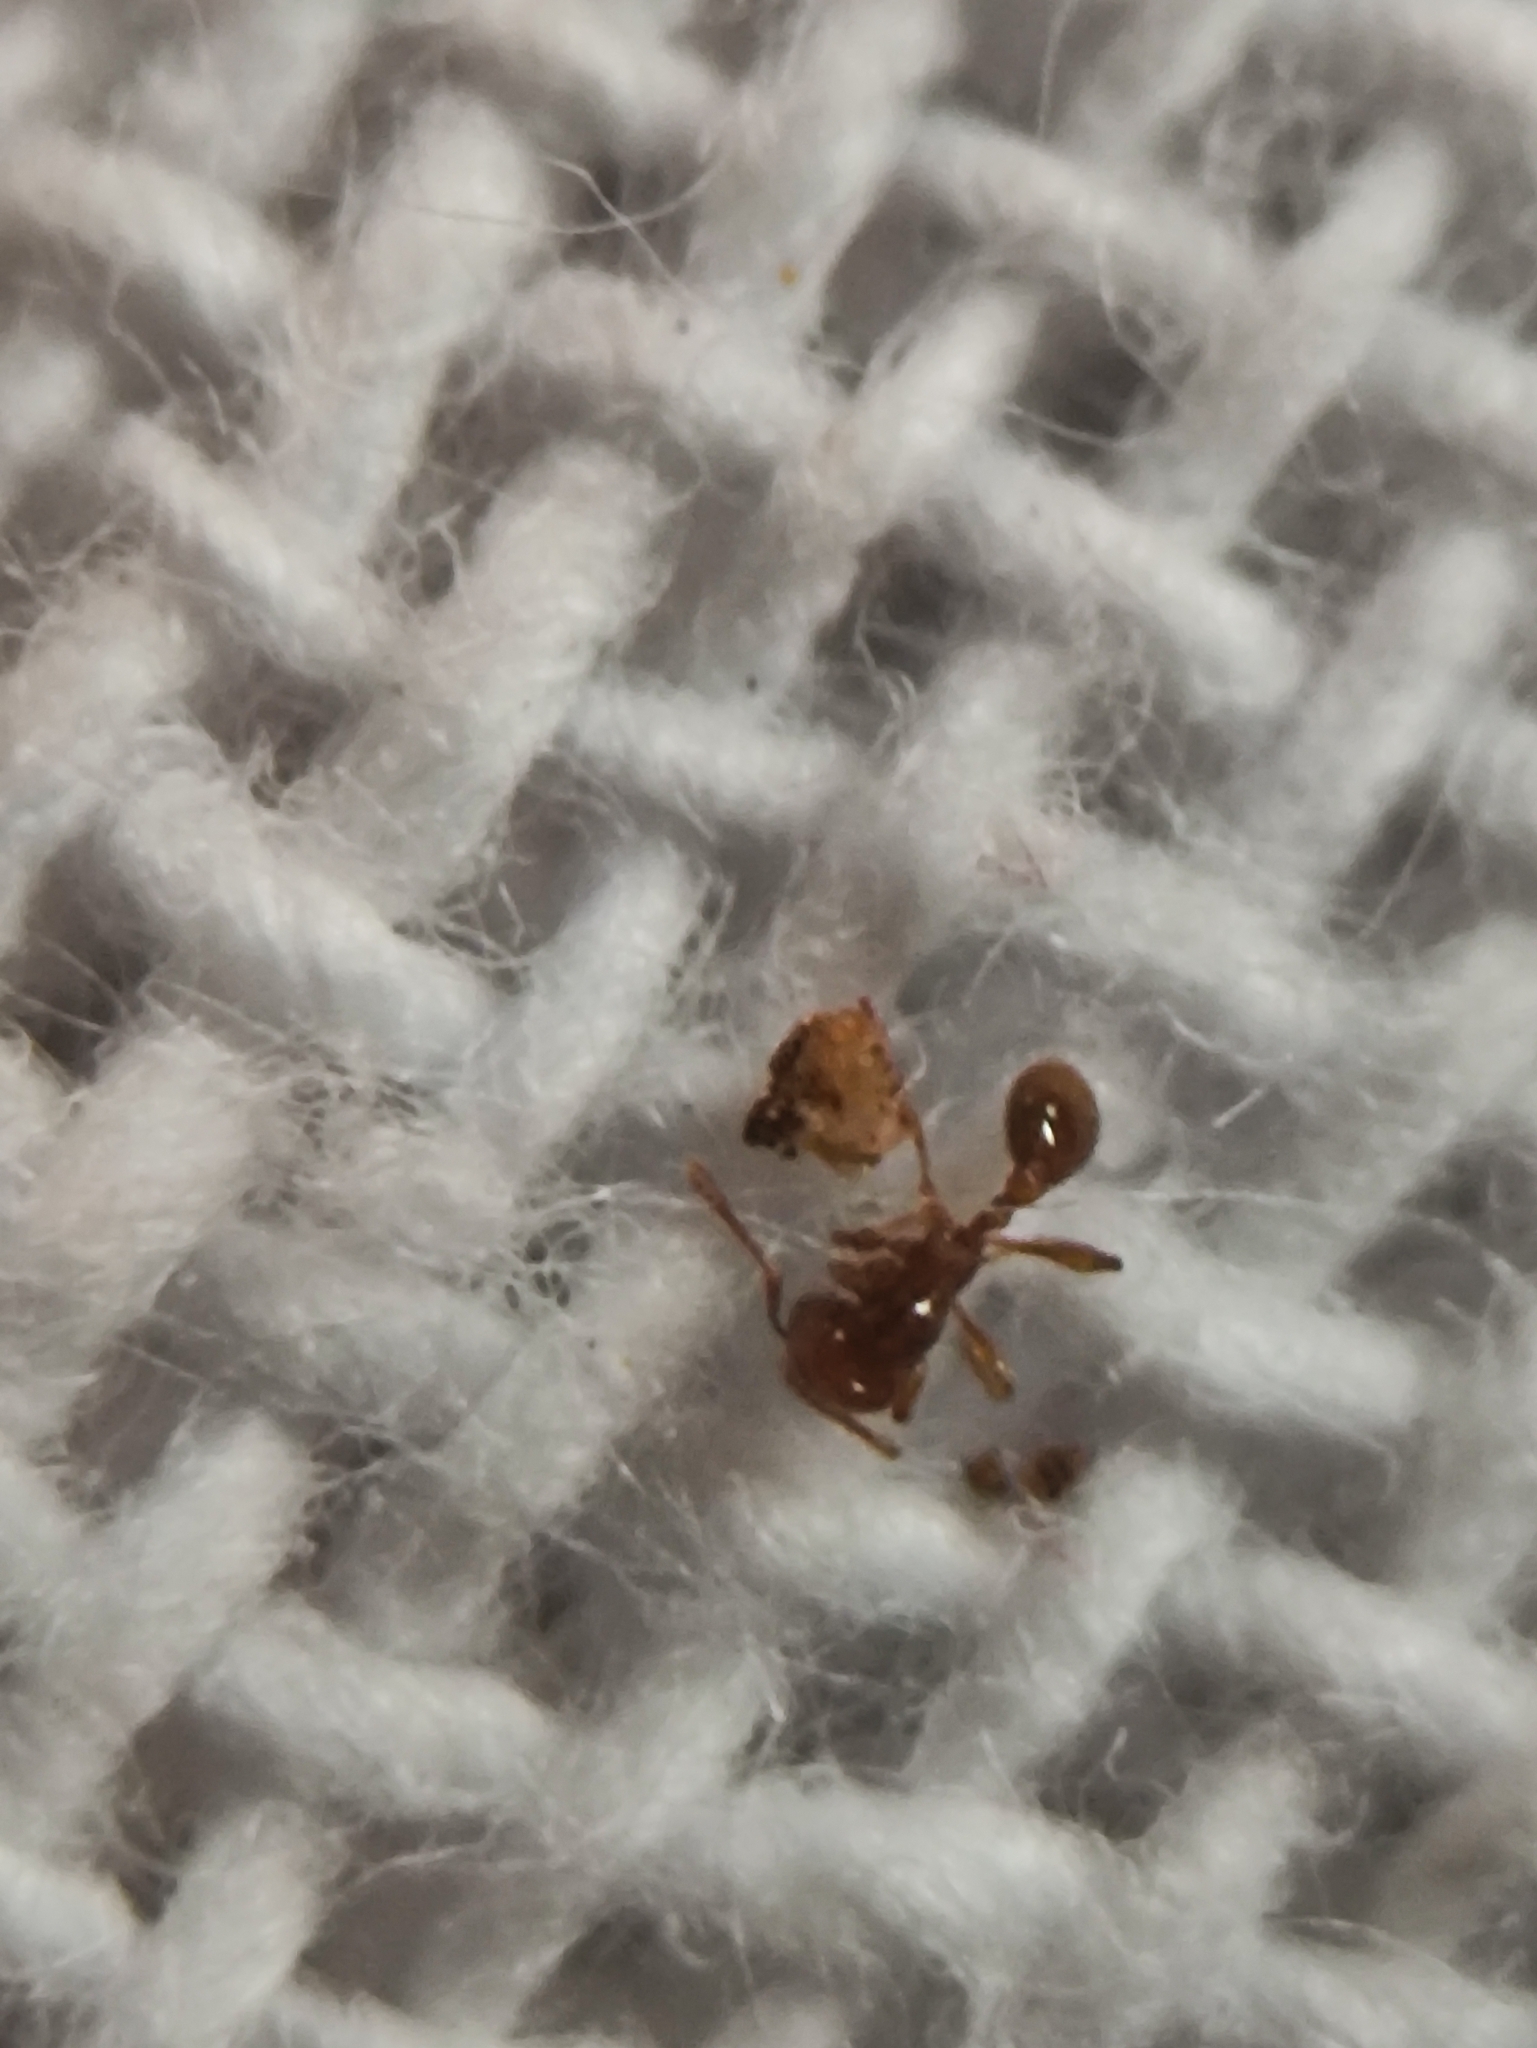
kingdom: Animalia
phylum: Arthropoda
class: Insecta
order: Hymenoptera
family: Formicidae
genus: Carebara
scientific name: Carebara
